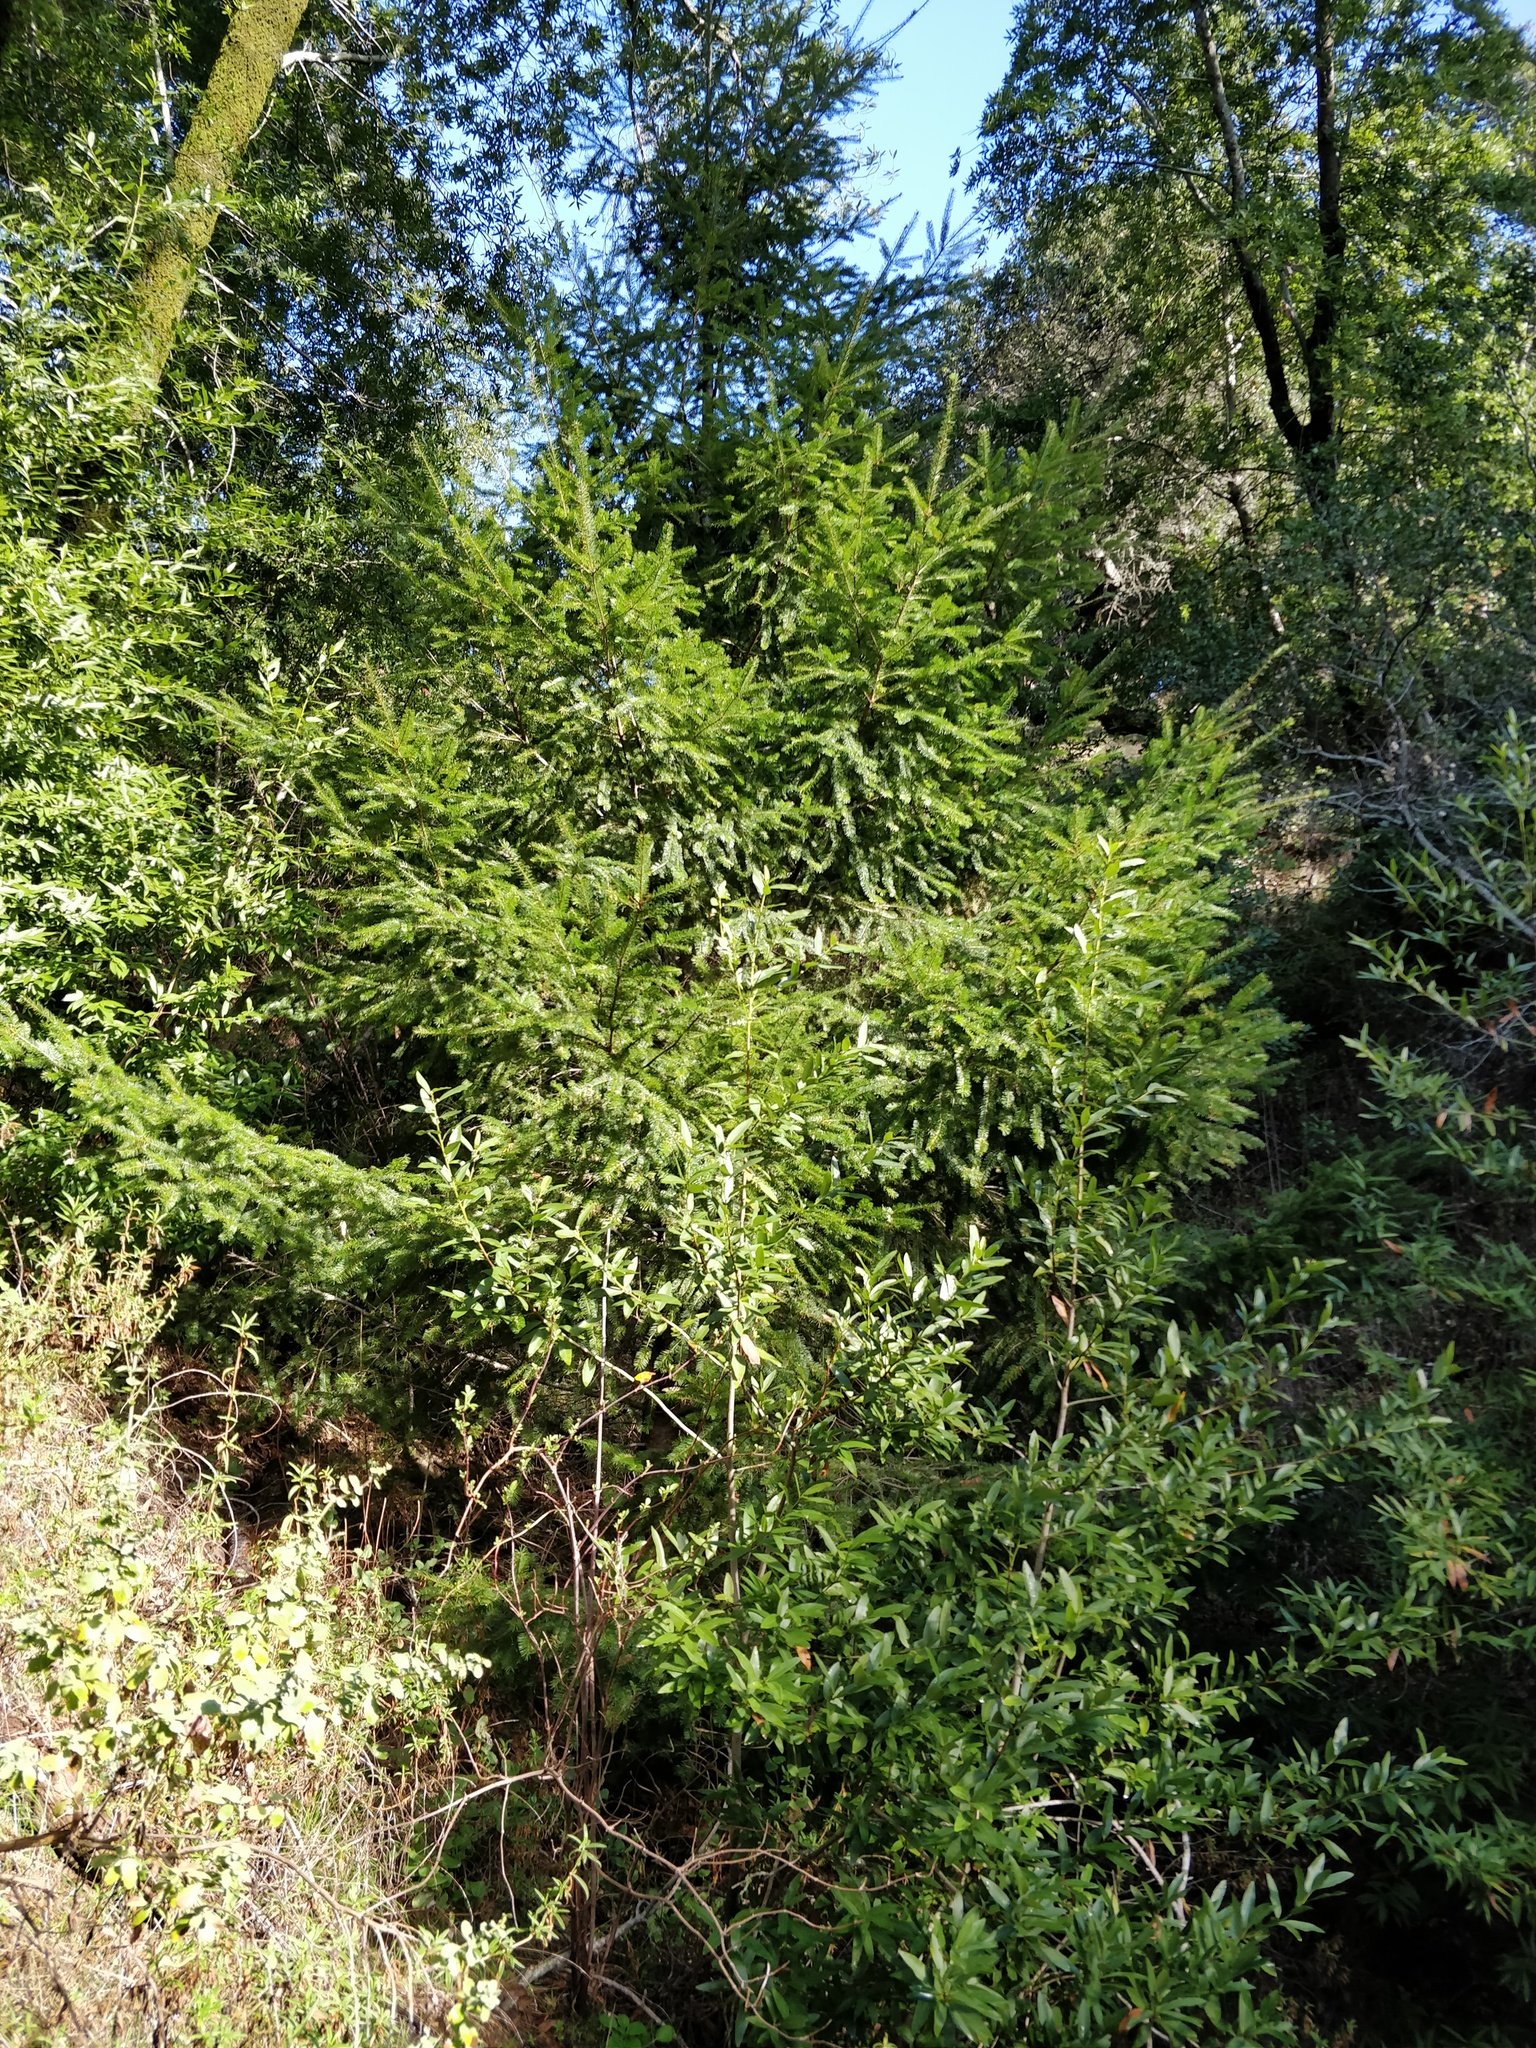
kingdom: Plantae
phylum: Tracheophyta
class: Pinopsida
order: Pinales
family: Pinaceae
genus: Pseudotsuga
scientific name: Pseudotsuga menziesii
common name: Douglas fir
